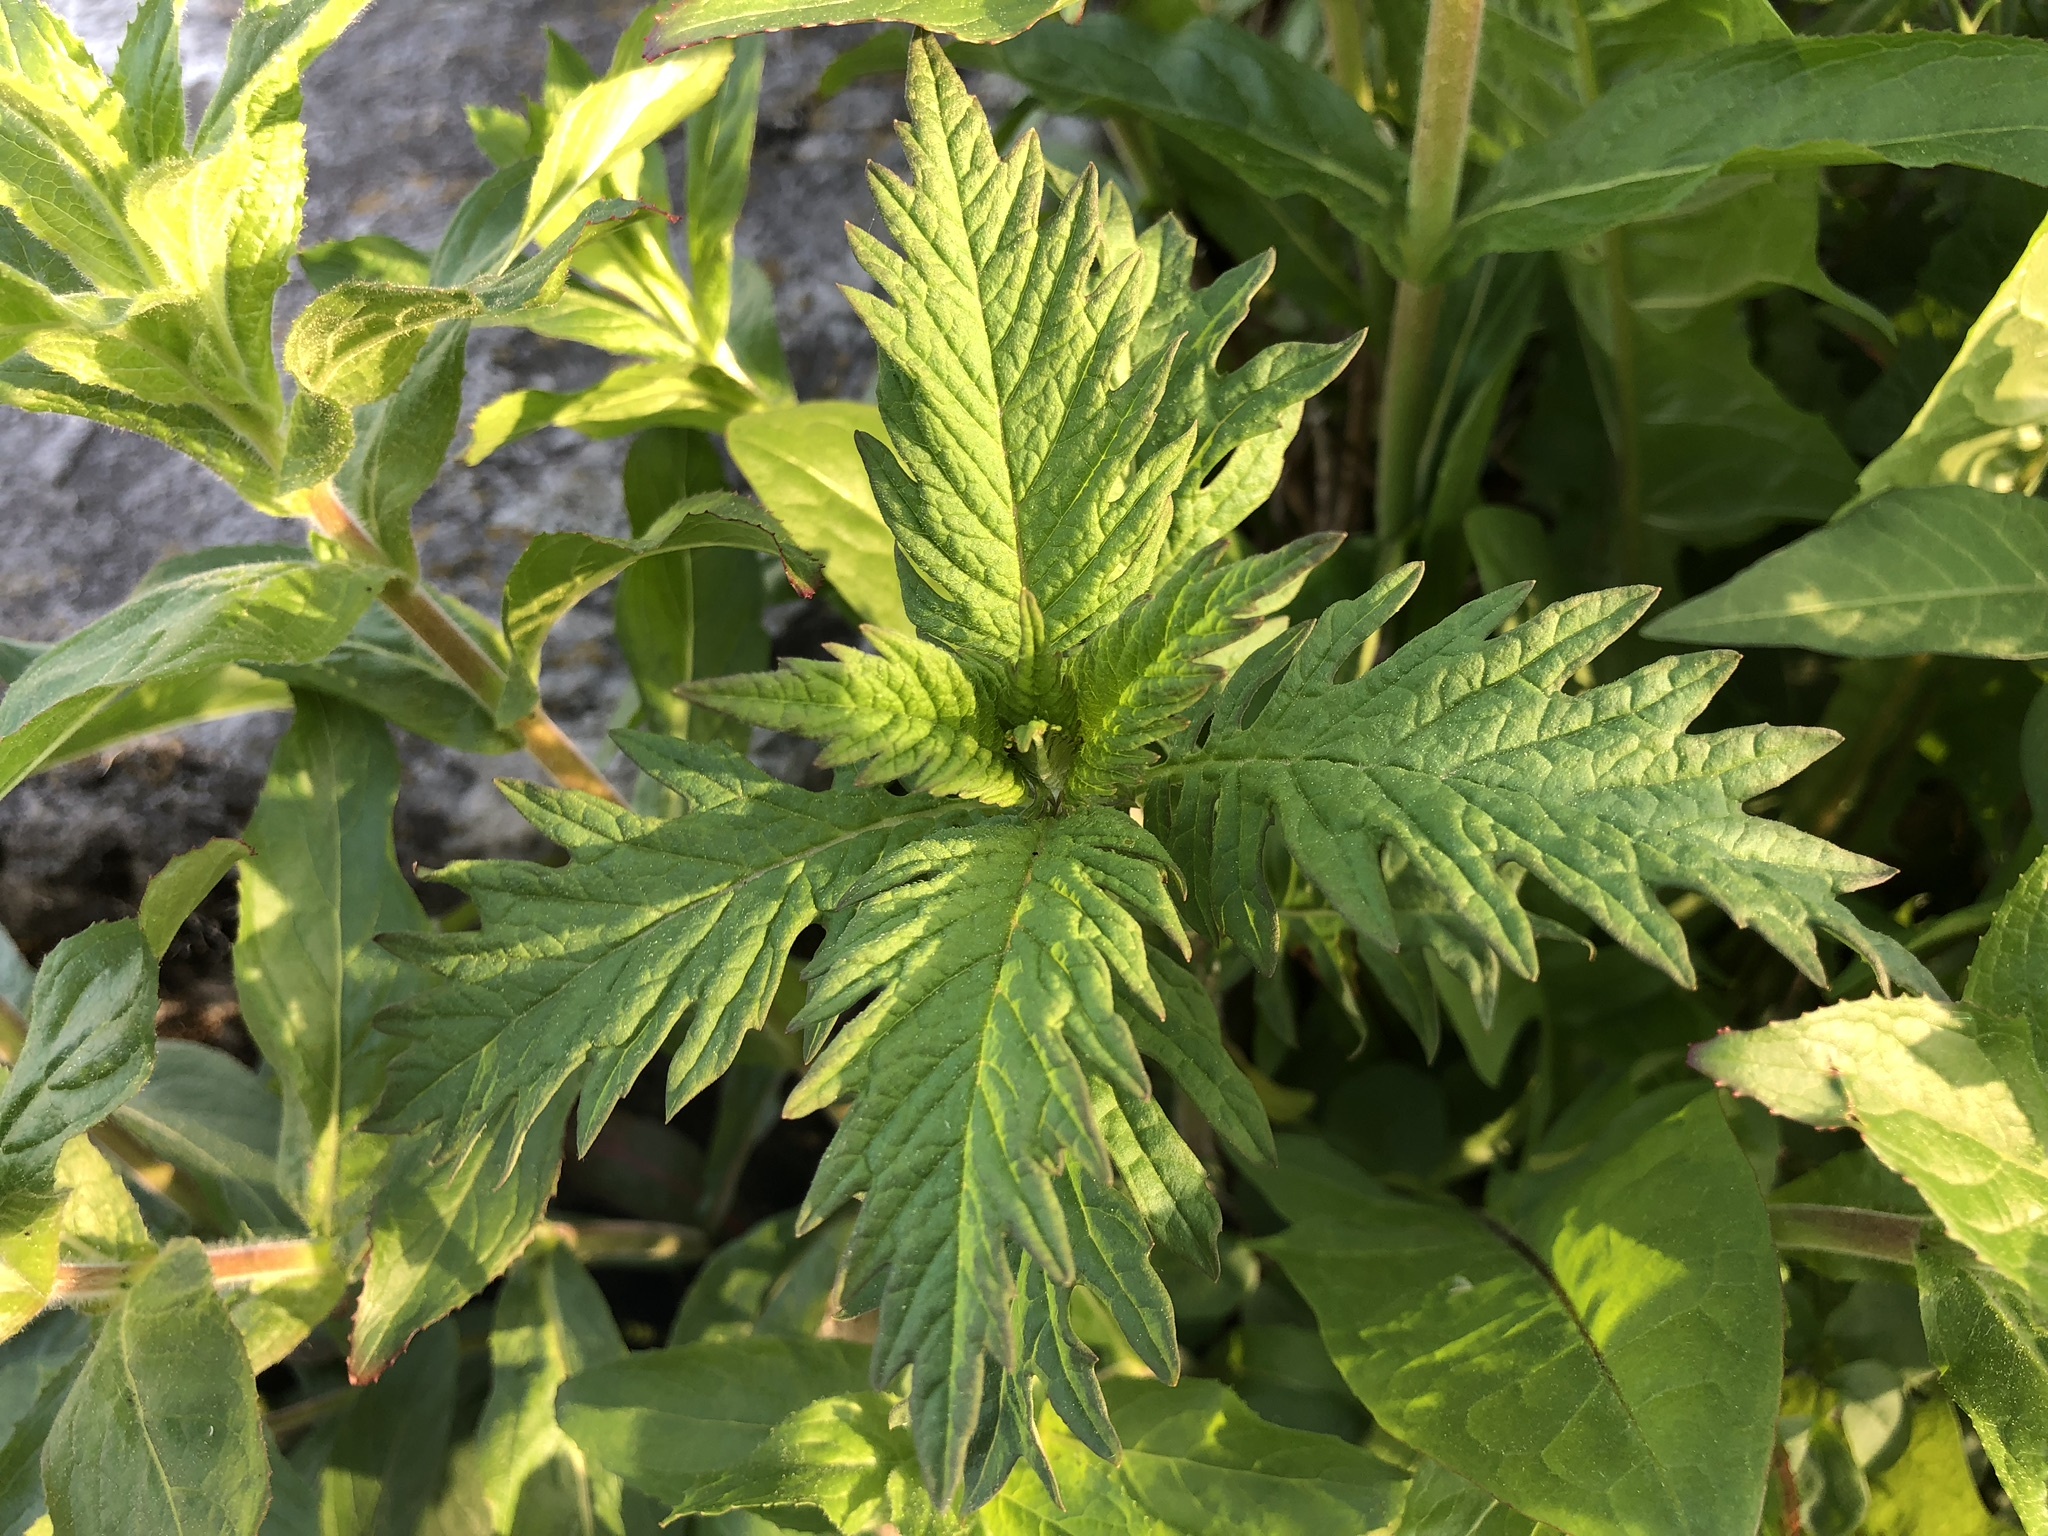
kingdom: Plantae
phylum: Tracheophyta
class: Magnoliopsida
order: Lamiales
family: Lamiaceae
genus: Lycopus
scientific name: Lycopus europaeus
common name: European bugleweed
